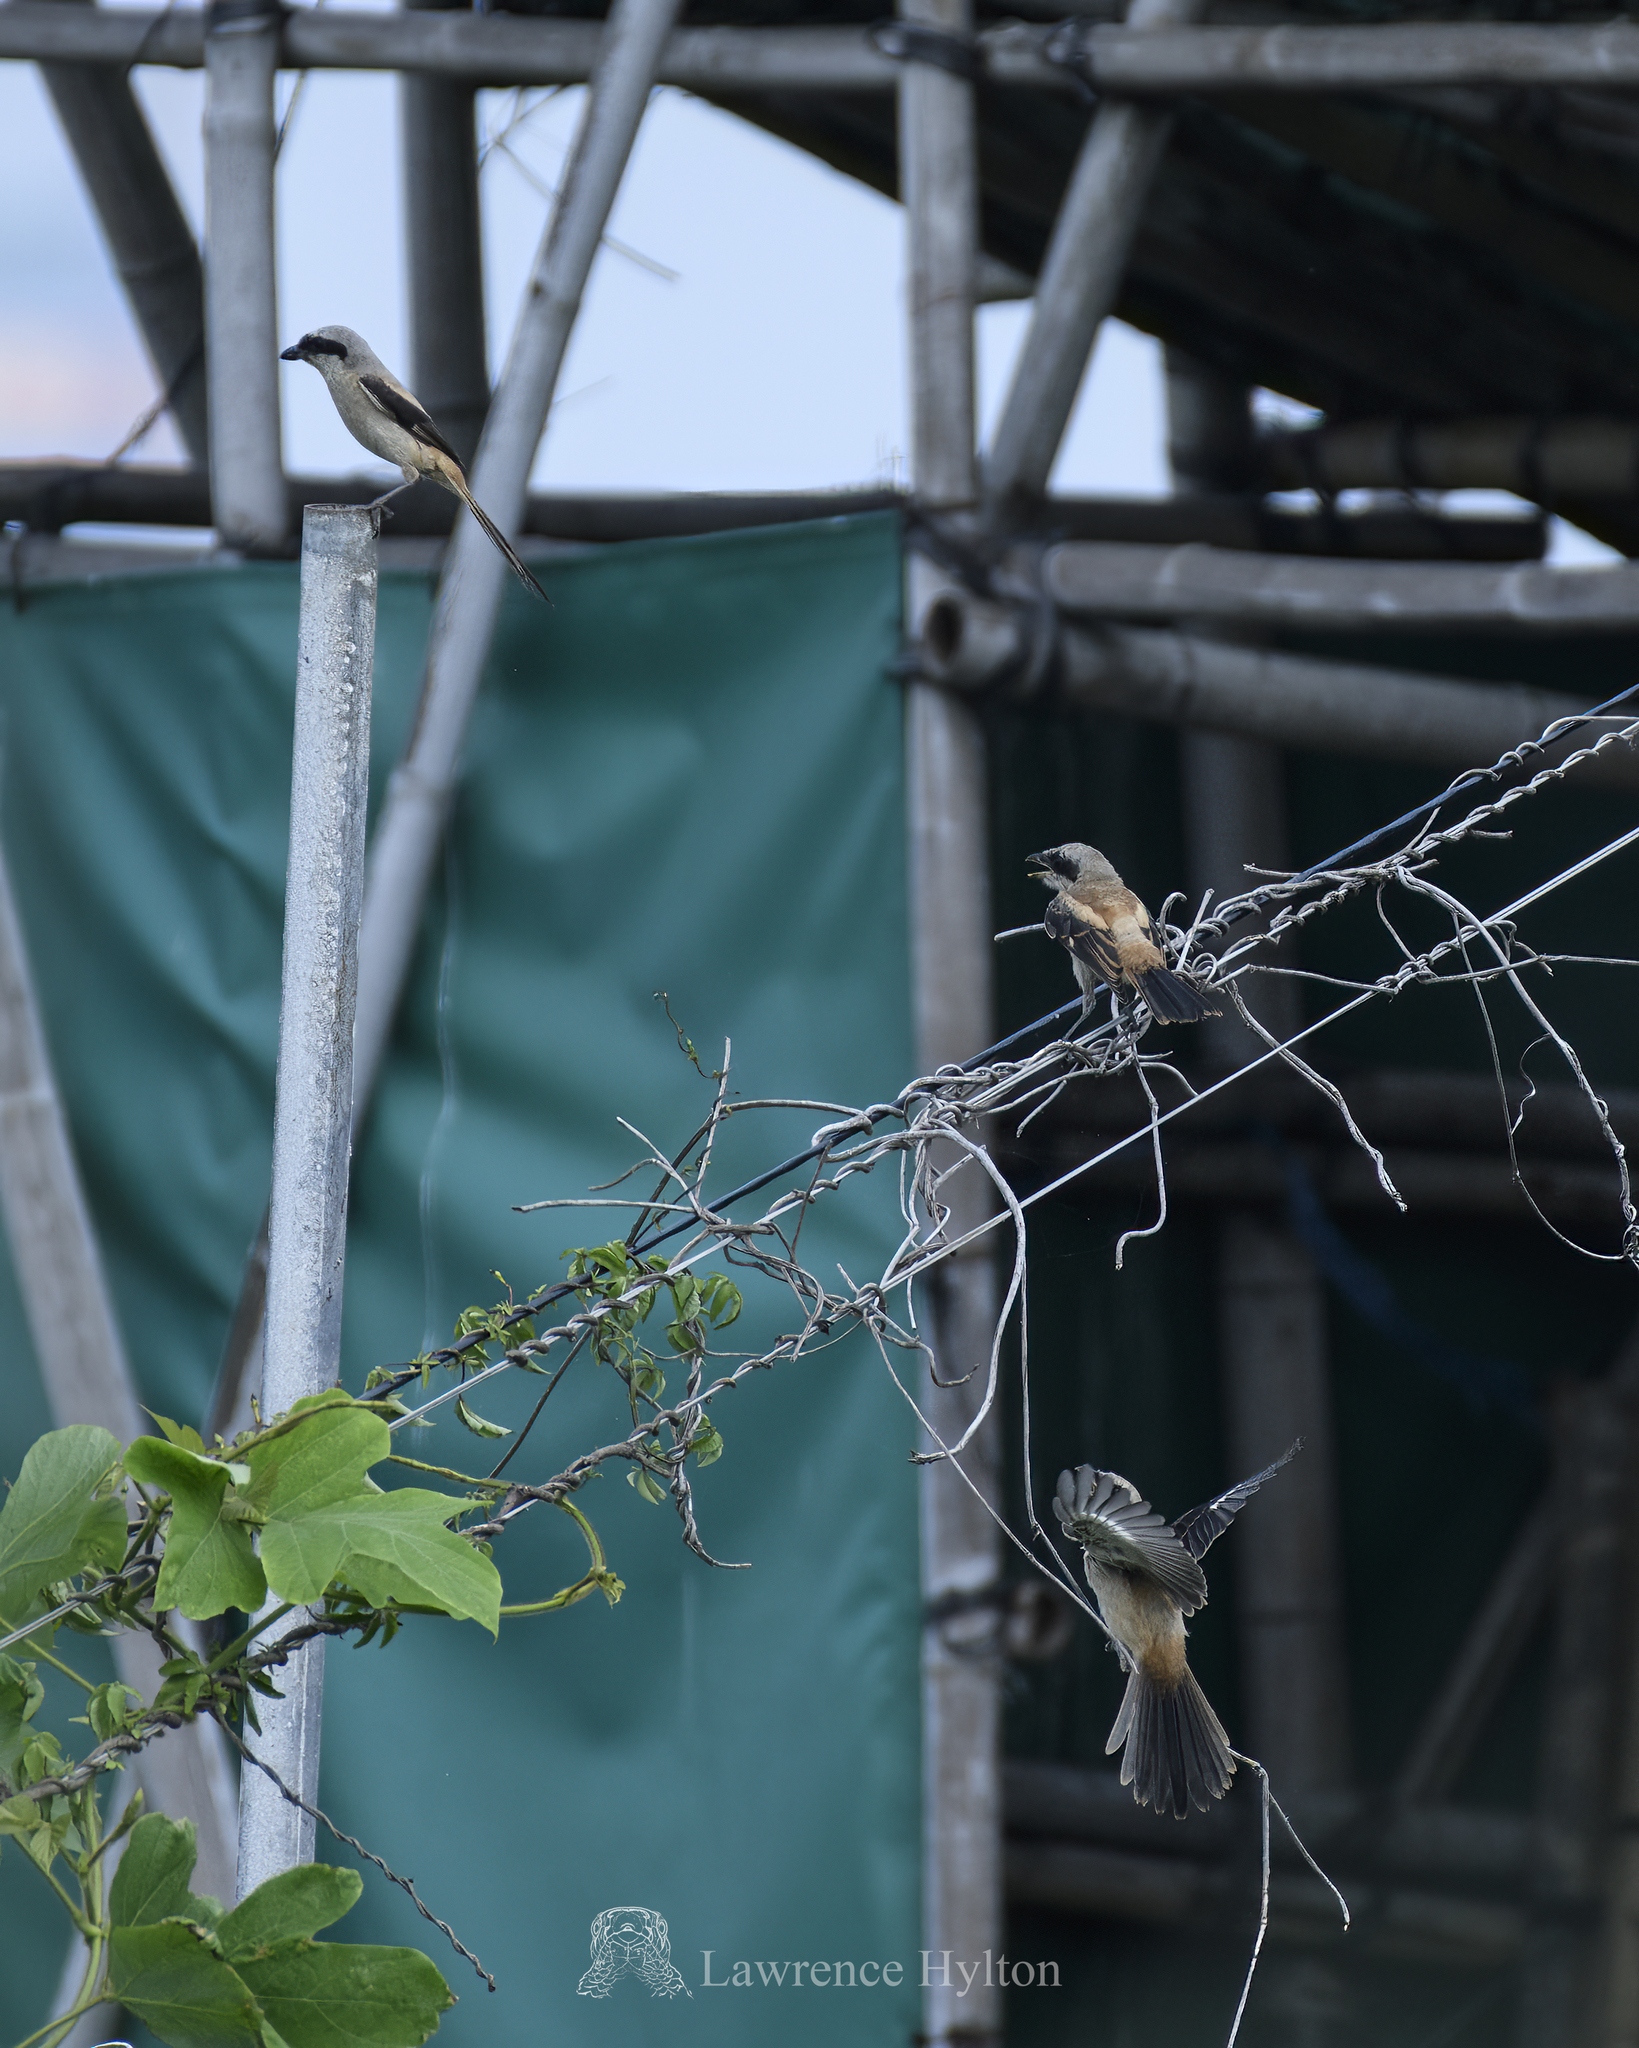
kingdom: Animalia
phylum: Chordata
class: Aves
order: Passeriformes
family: Laniidae
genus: Lanius
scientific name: Lanius schach
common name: Long-tailed shrike
